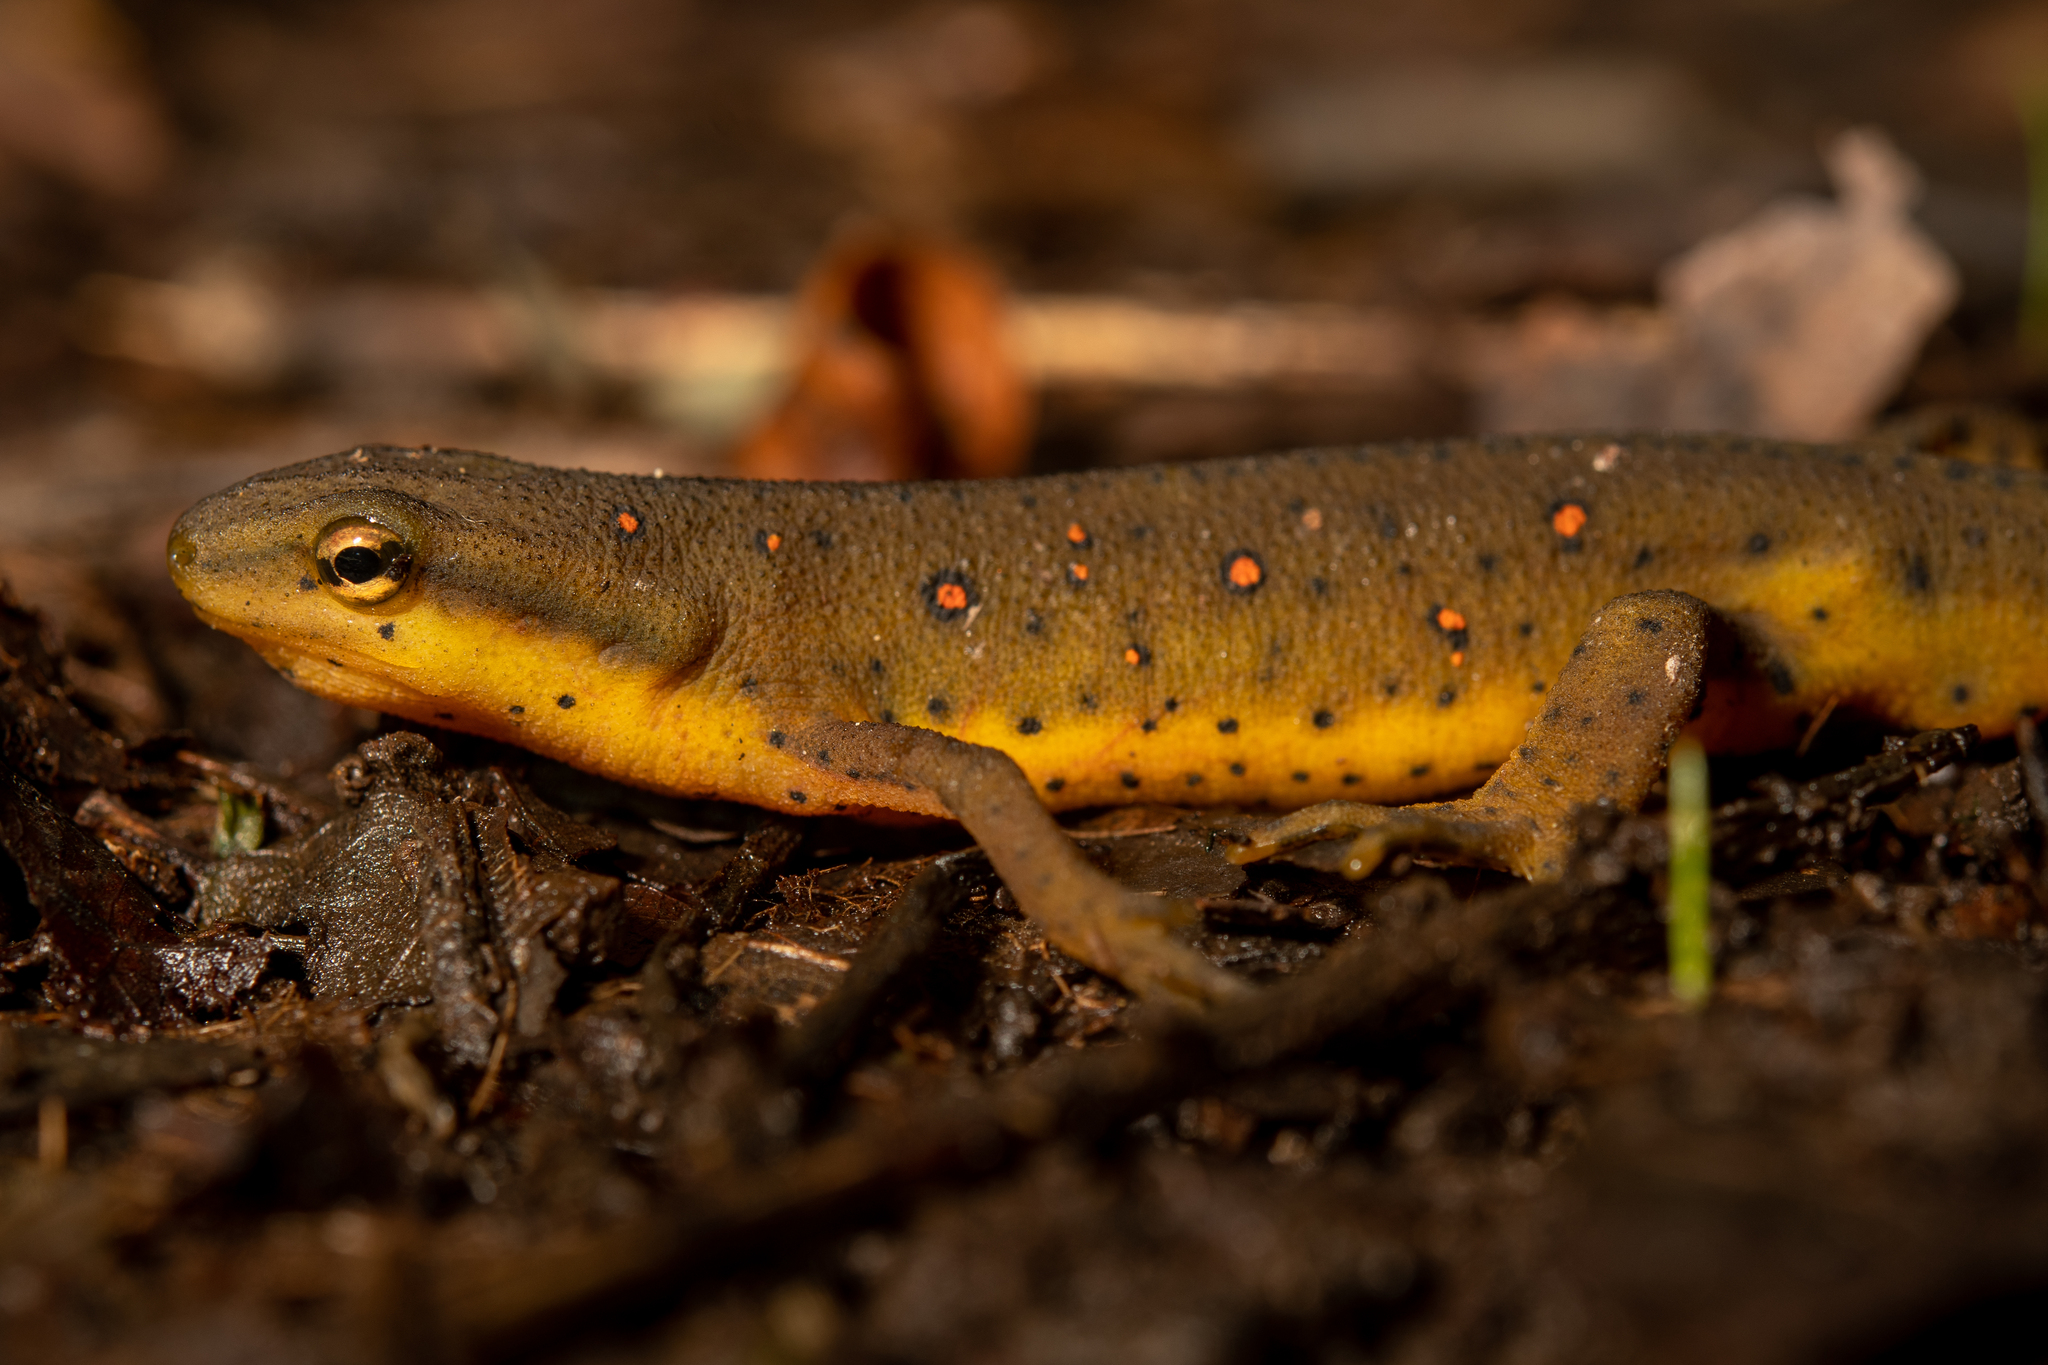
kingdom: Animalia
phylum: Chordata
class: Amphibia
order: Caudata
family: Salamandridae
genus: Notophthalmus
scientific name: Notophthalmus viridescens
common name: Eastern newt
